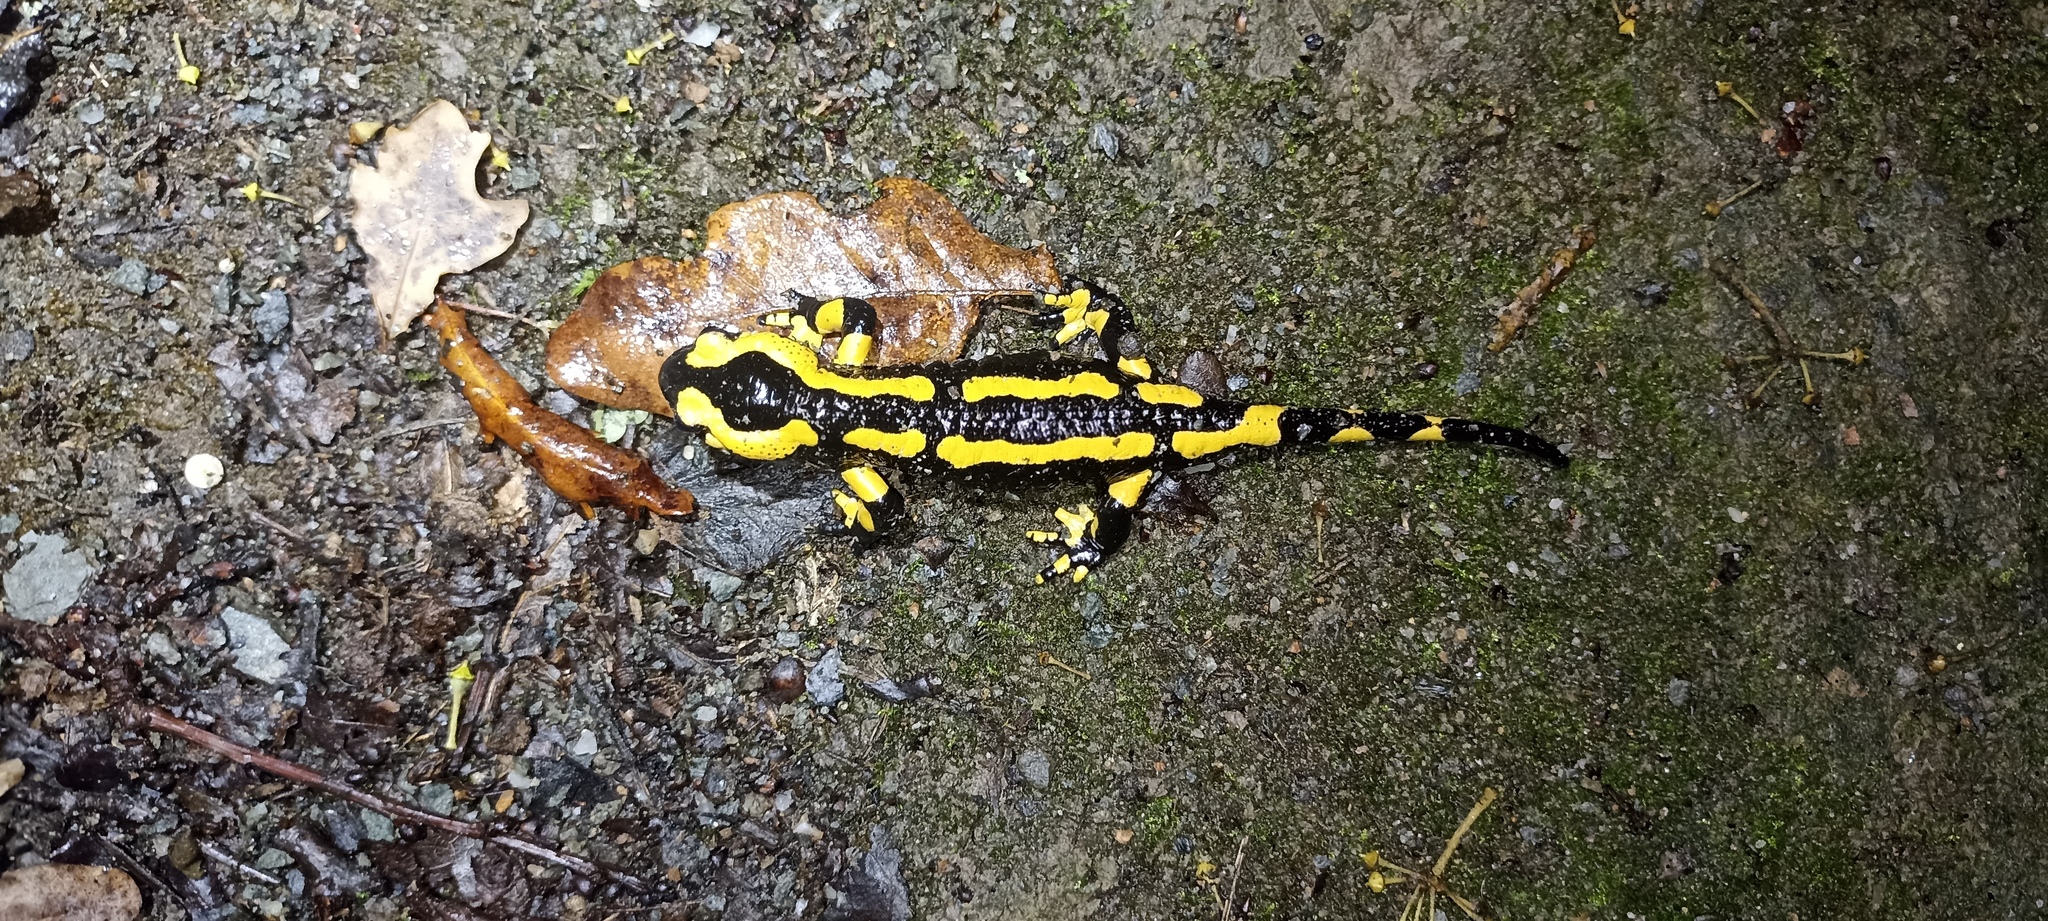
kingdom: Animalia
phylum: Chordata
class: Amphibia
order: Caudata
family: Salamandridae
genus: Salamandra
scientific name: Salamandra salamandra
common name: Fire salamander
